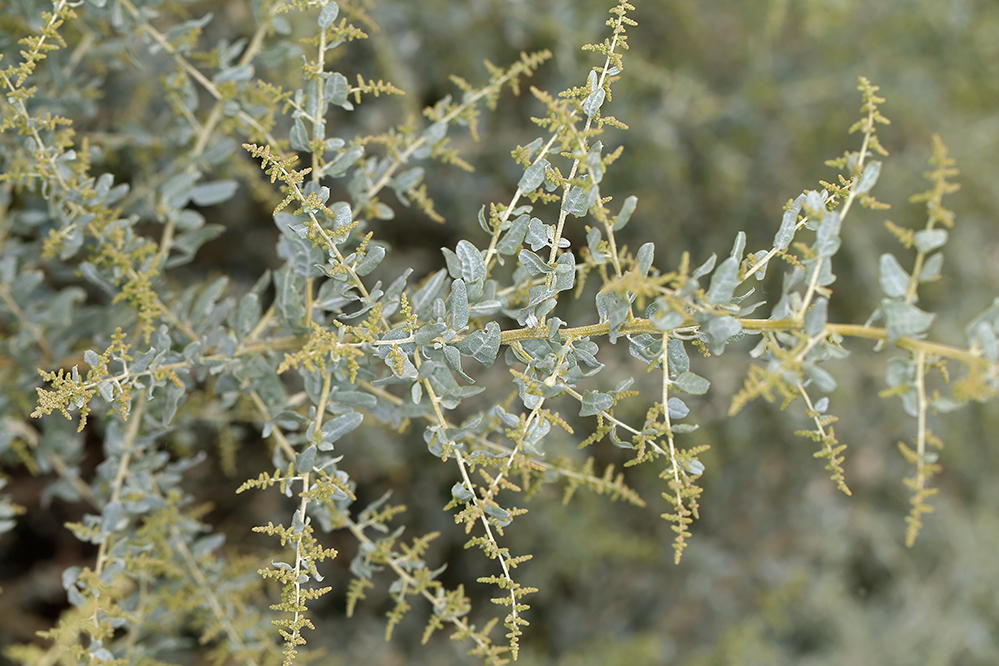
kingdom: Plantae
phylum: Tracheophyta
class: Magnoliopsida
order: Caryophyllales
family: Amaranthaceae
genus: Atriplex
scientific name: Atriplex torreyi
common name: Torrey's saltbush
